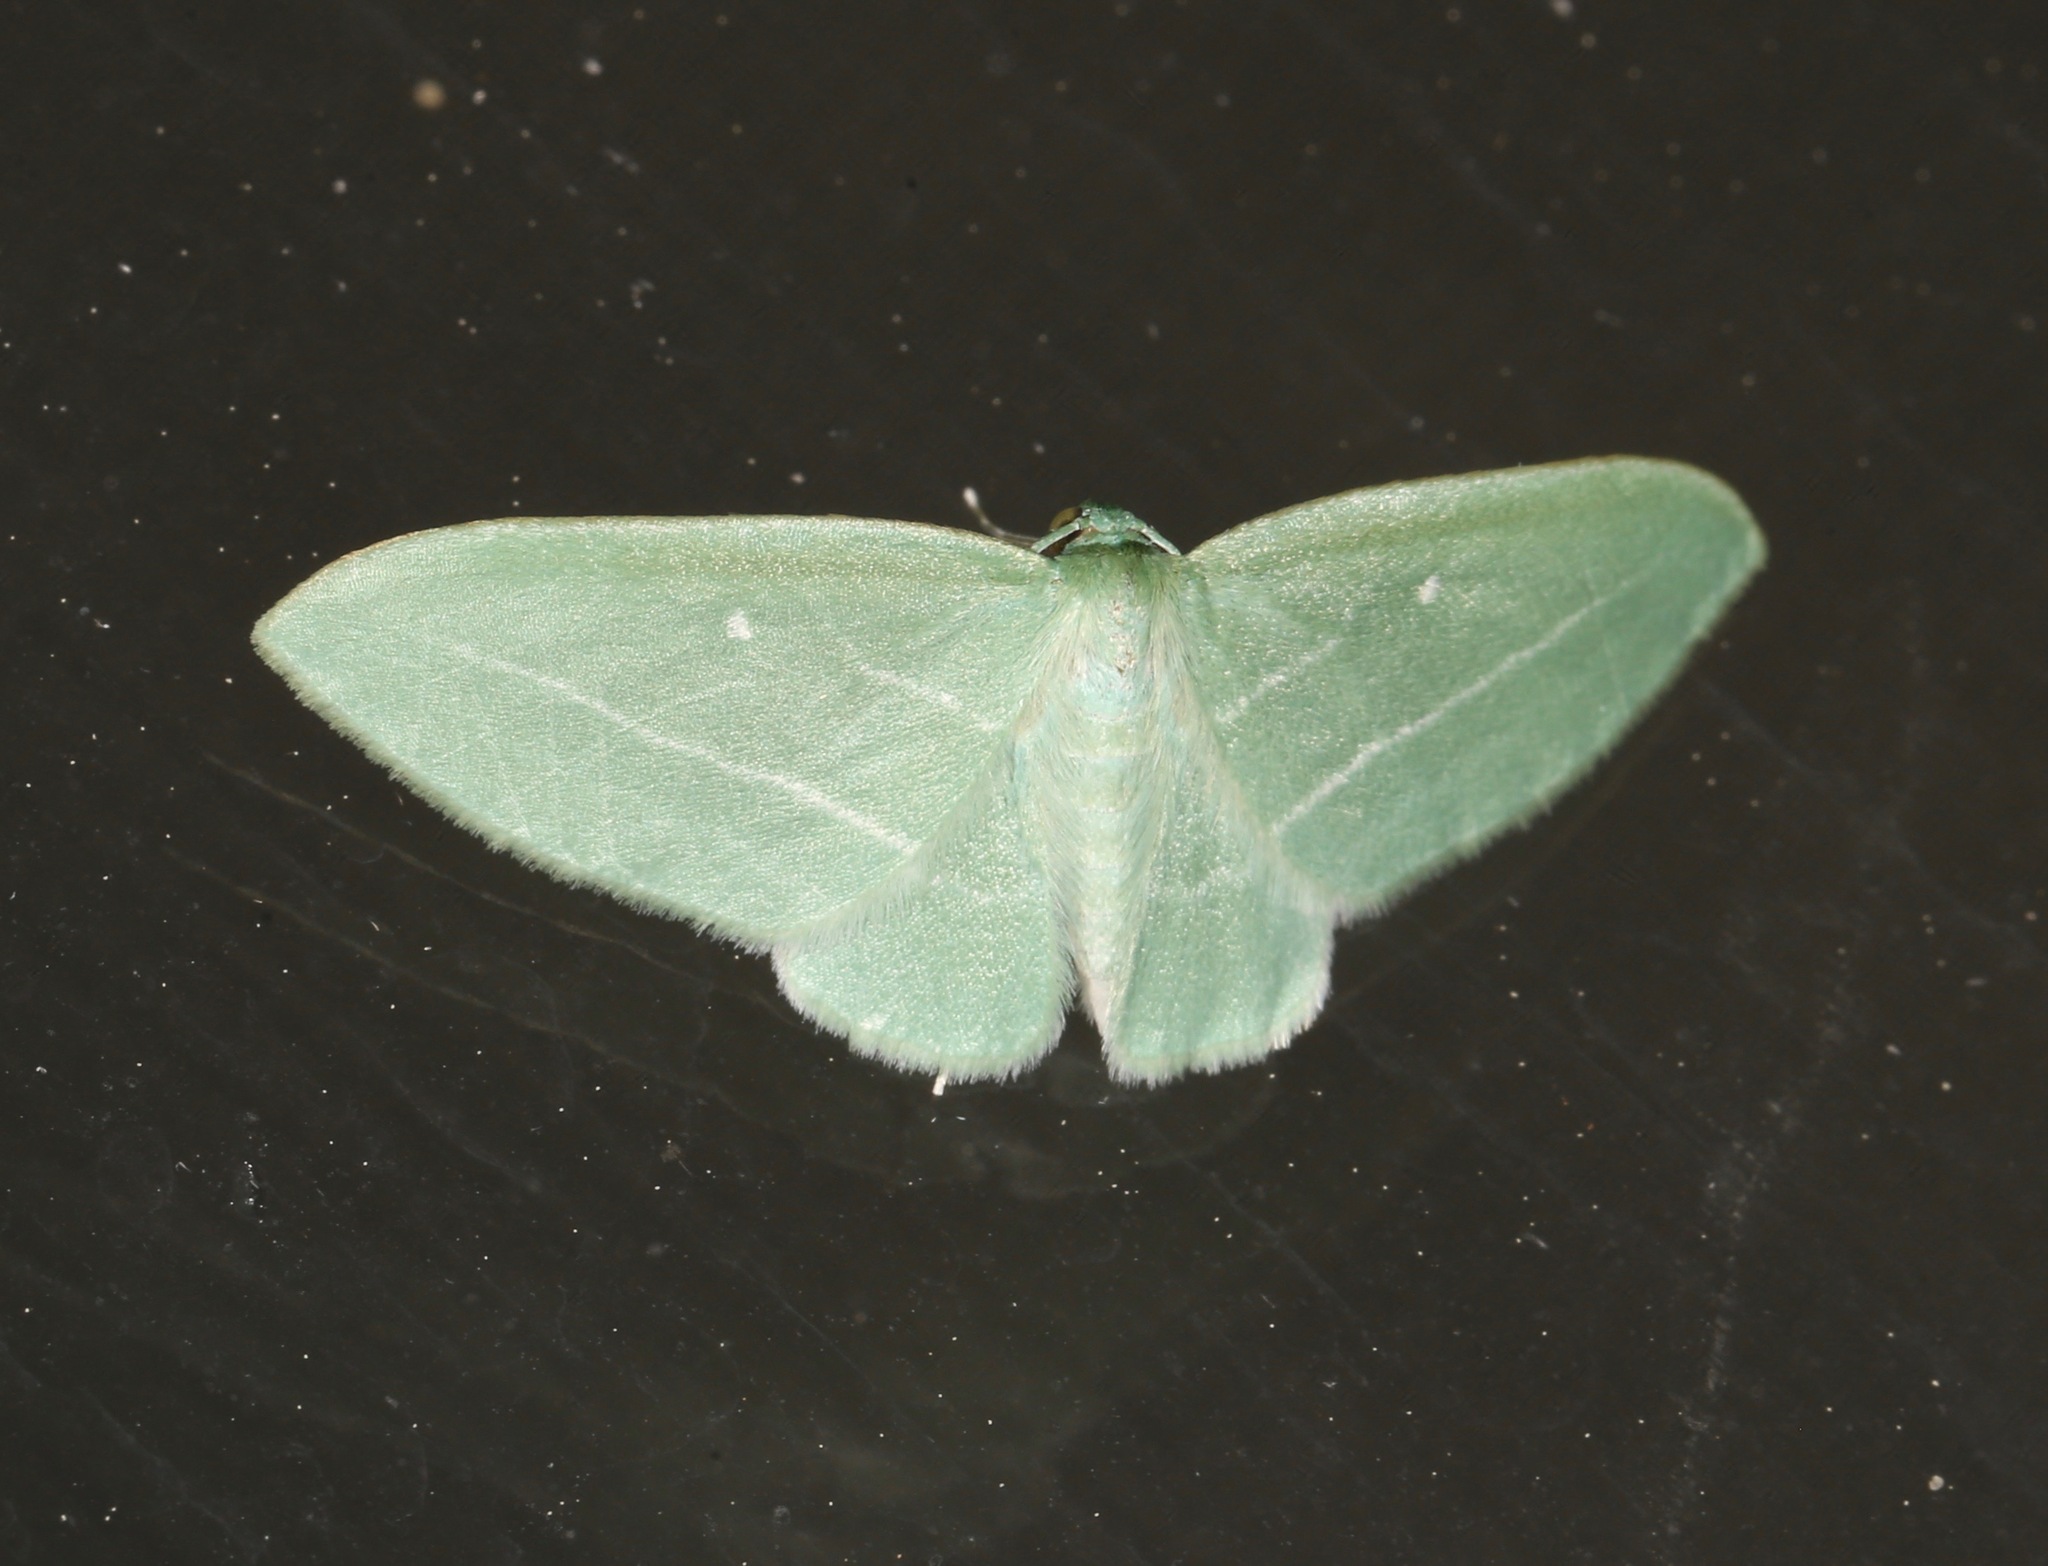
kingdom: Animalia
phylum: Arthropoda
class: Insecta
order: Lepidoptera
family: Geometridae
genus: Dyspteris
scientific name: Dyspteris abortivaria
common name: Bad-wing
